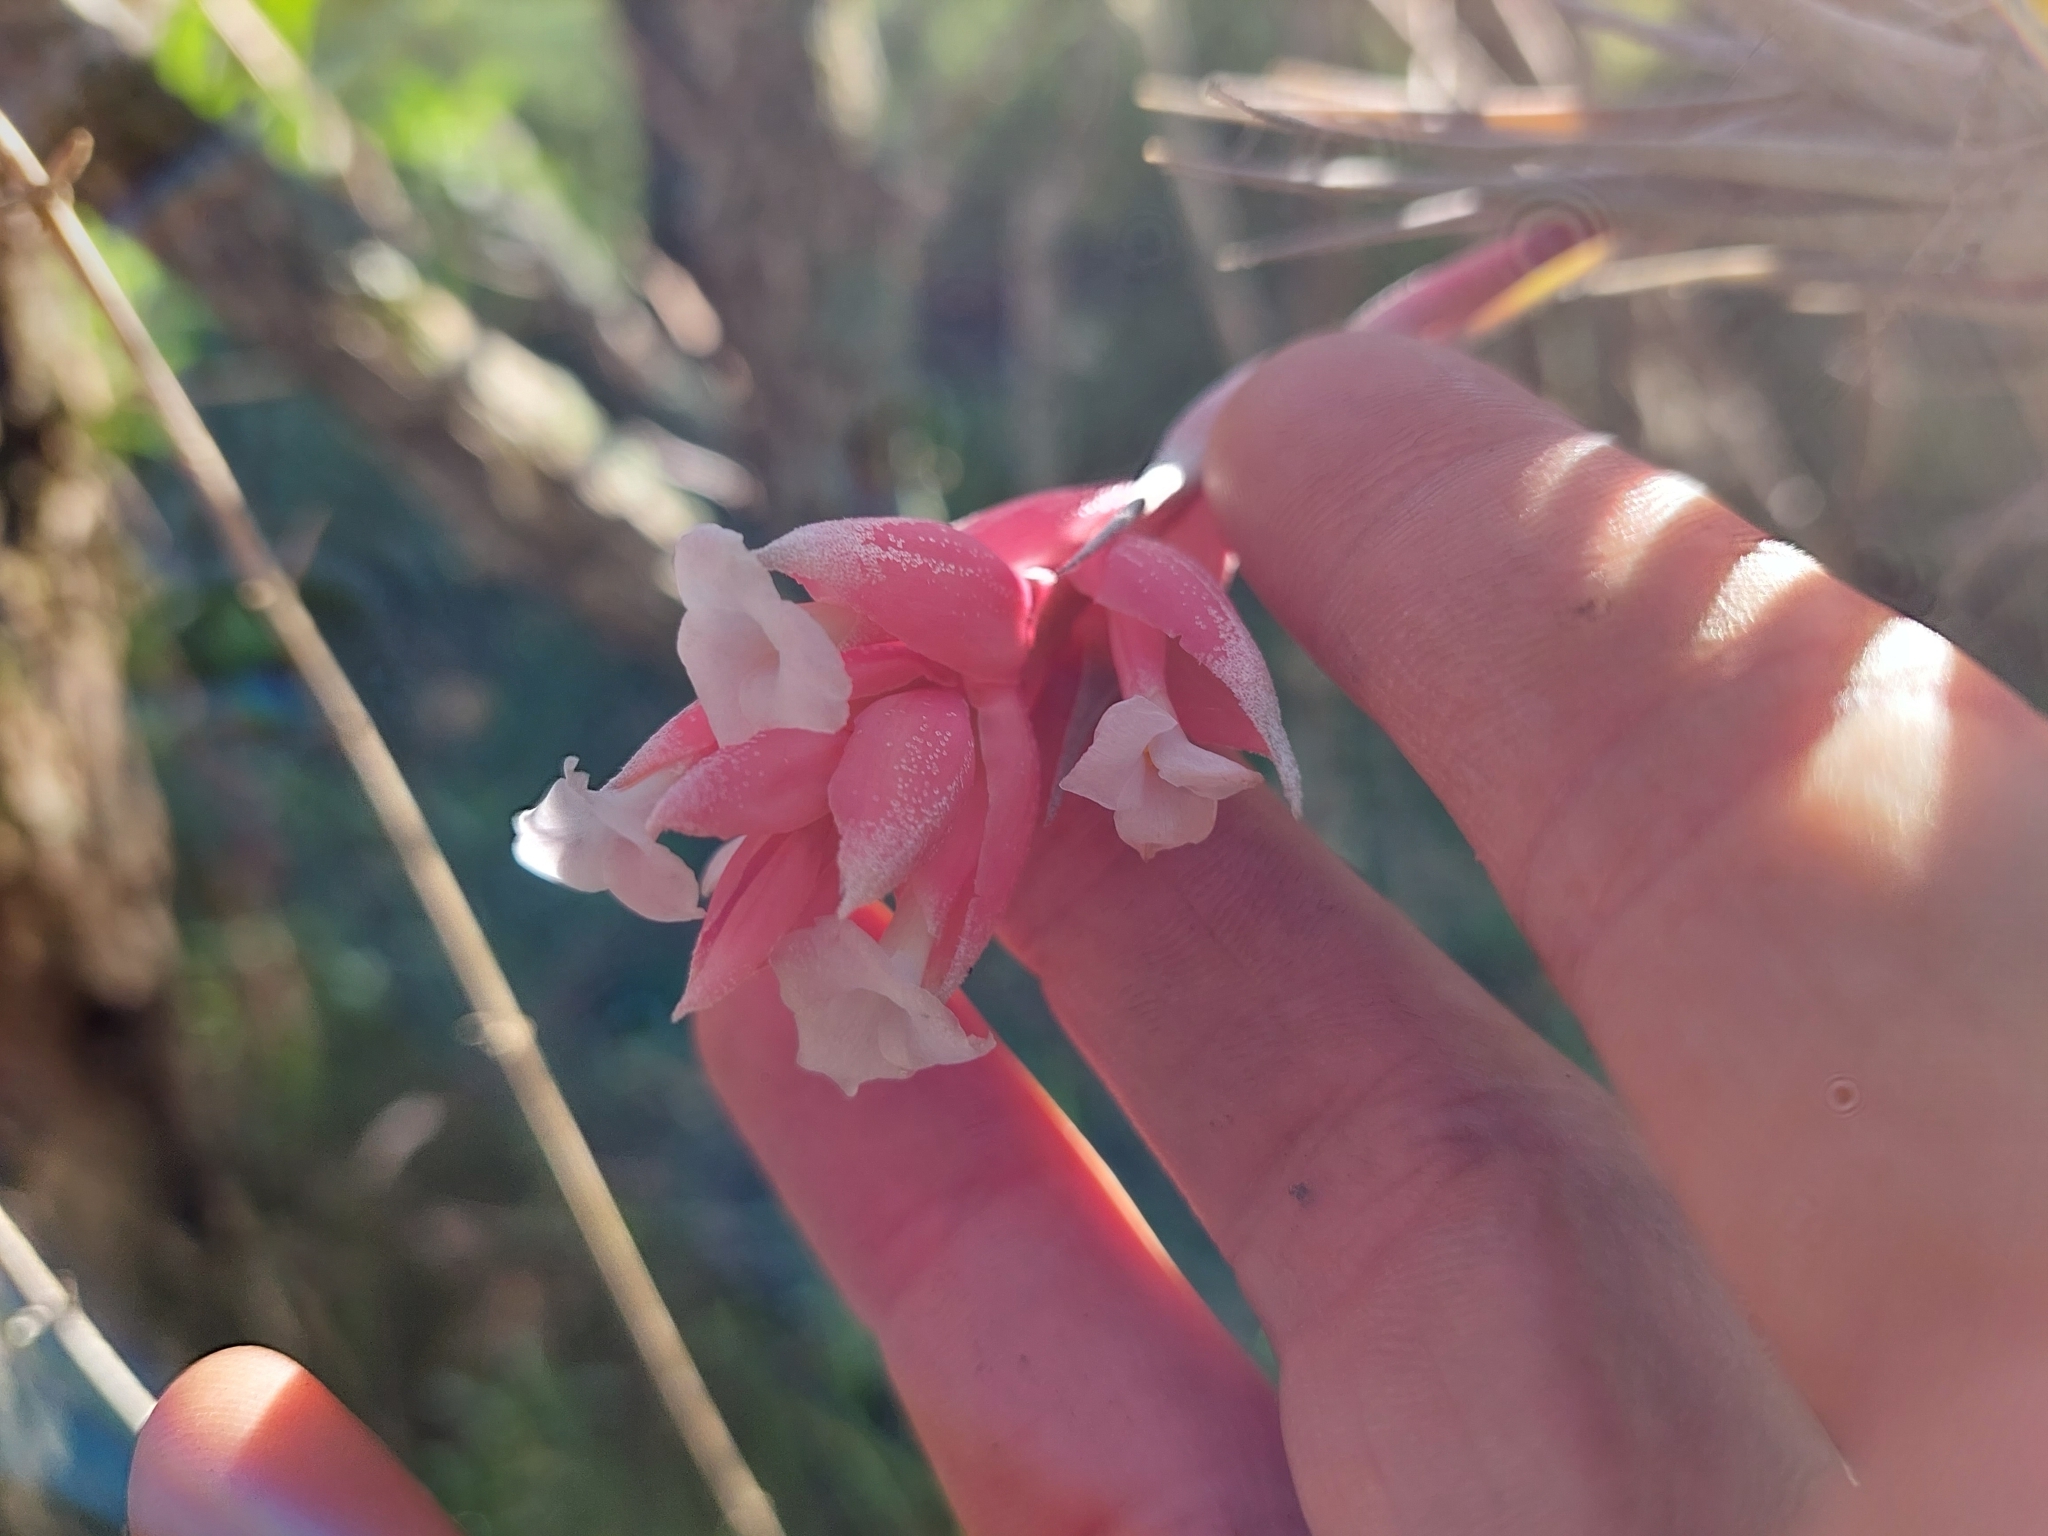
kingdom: Plantae
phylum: Tracheophyta
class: Liliopsida
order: Poales
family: Bromeliaceae
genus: Tillandsia
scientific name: Tillandsia recurvifolia
